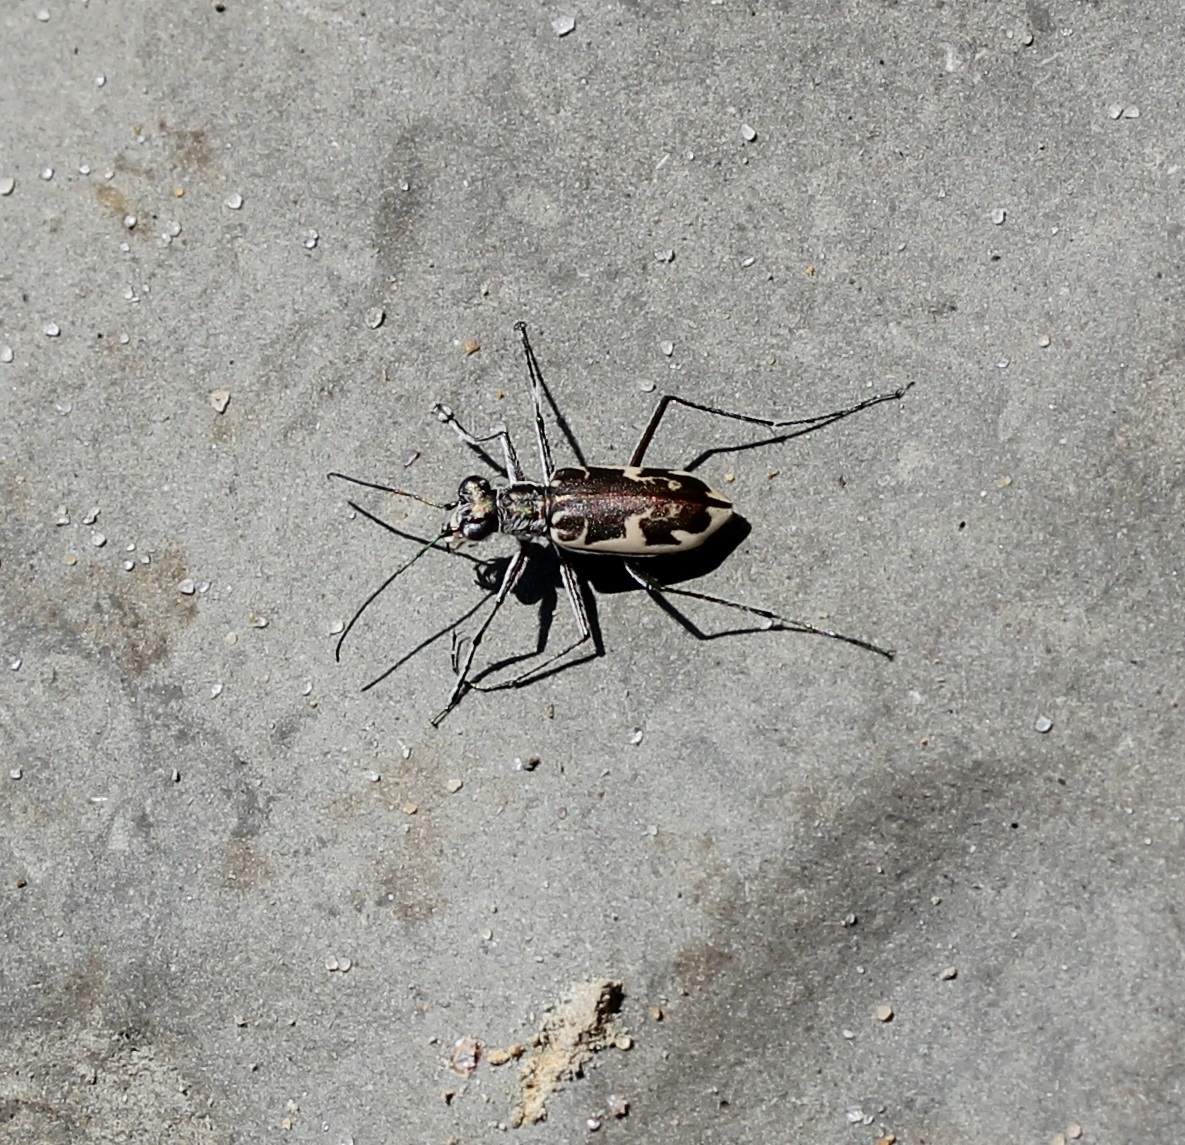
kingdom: Animalia
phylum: Arthropoda
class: Insecta
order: Coleoptera
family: Carabidae
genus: Ellipsoptera
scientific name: Ellipsoptera puritana
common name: Puritan tiger beetle
